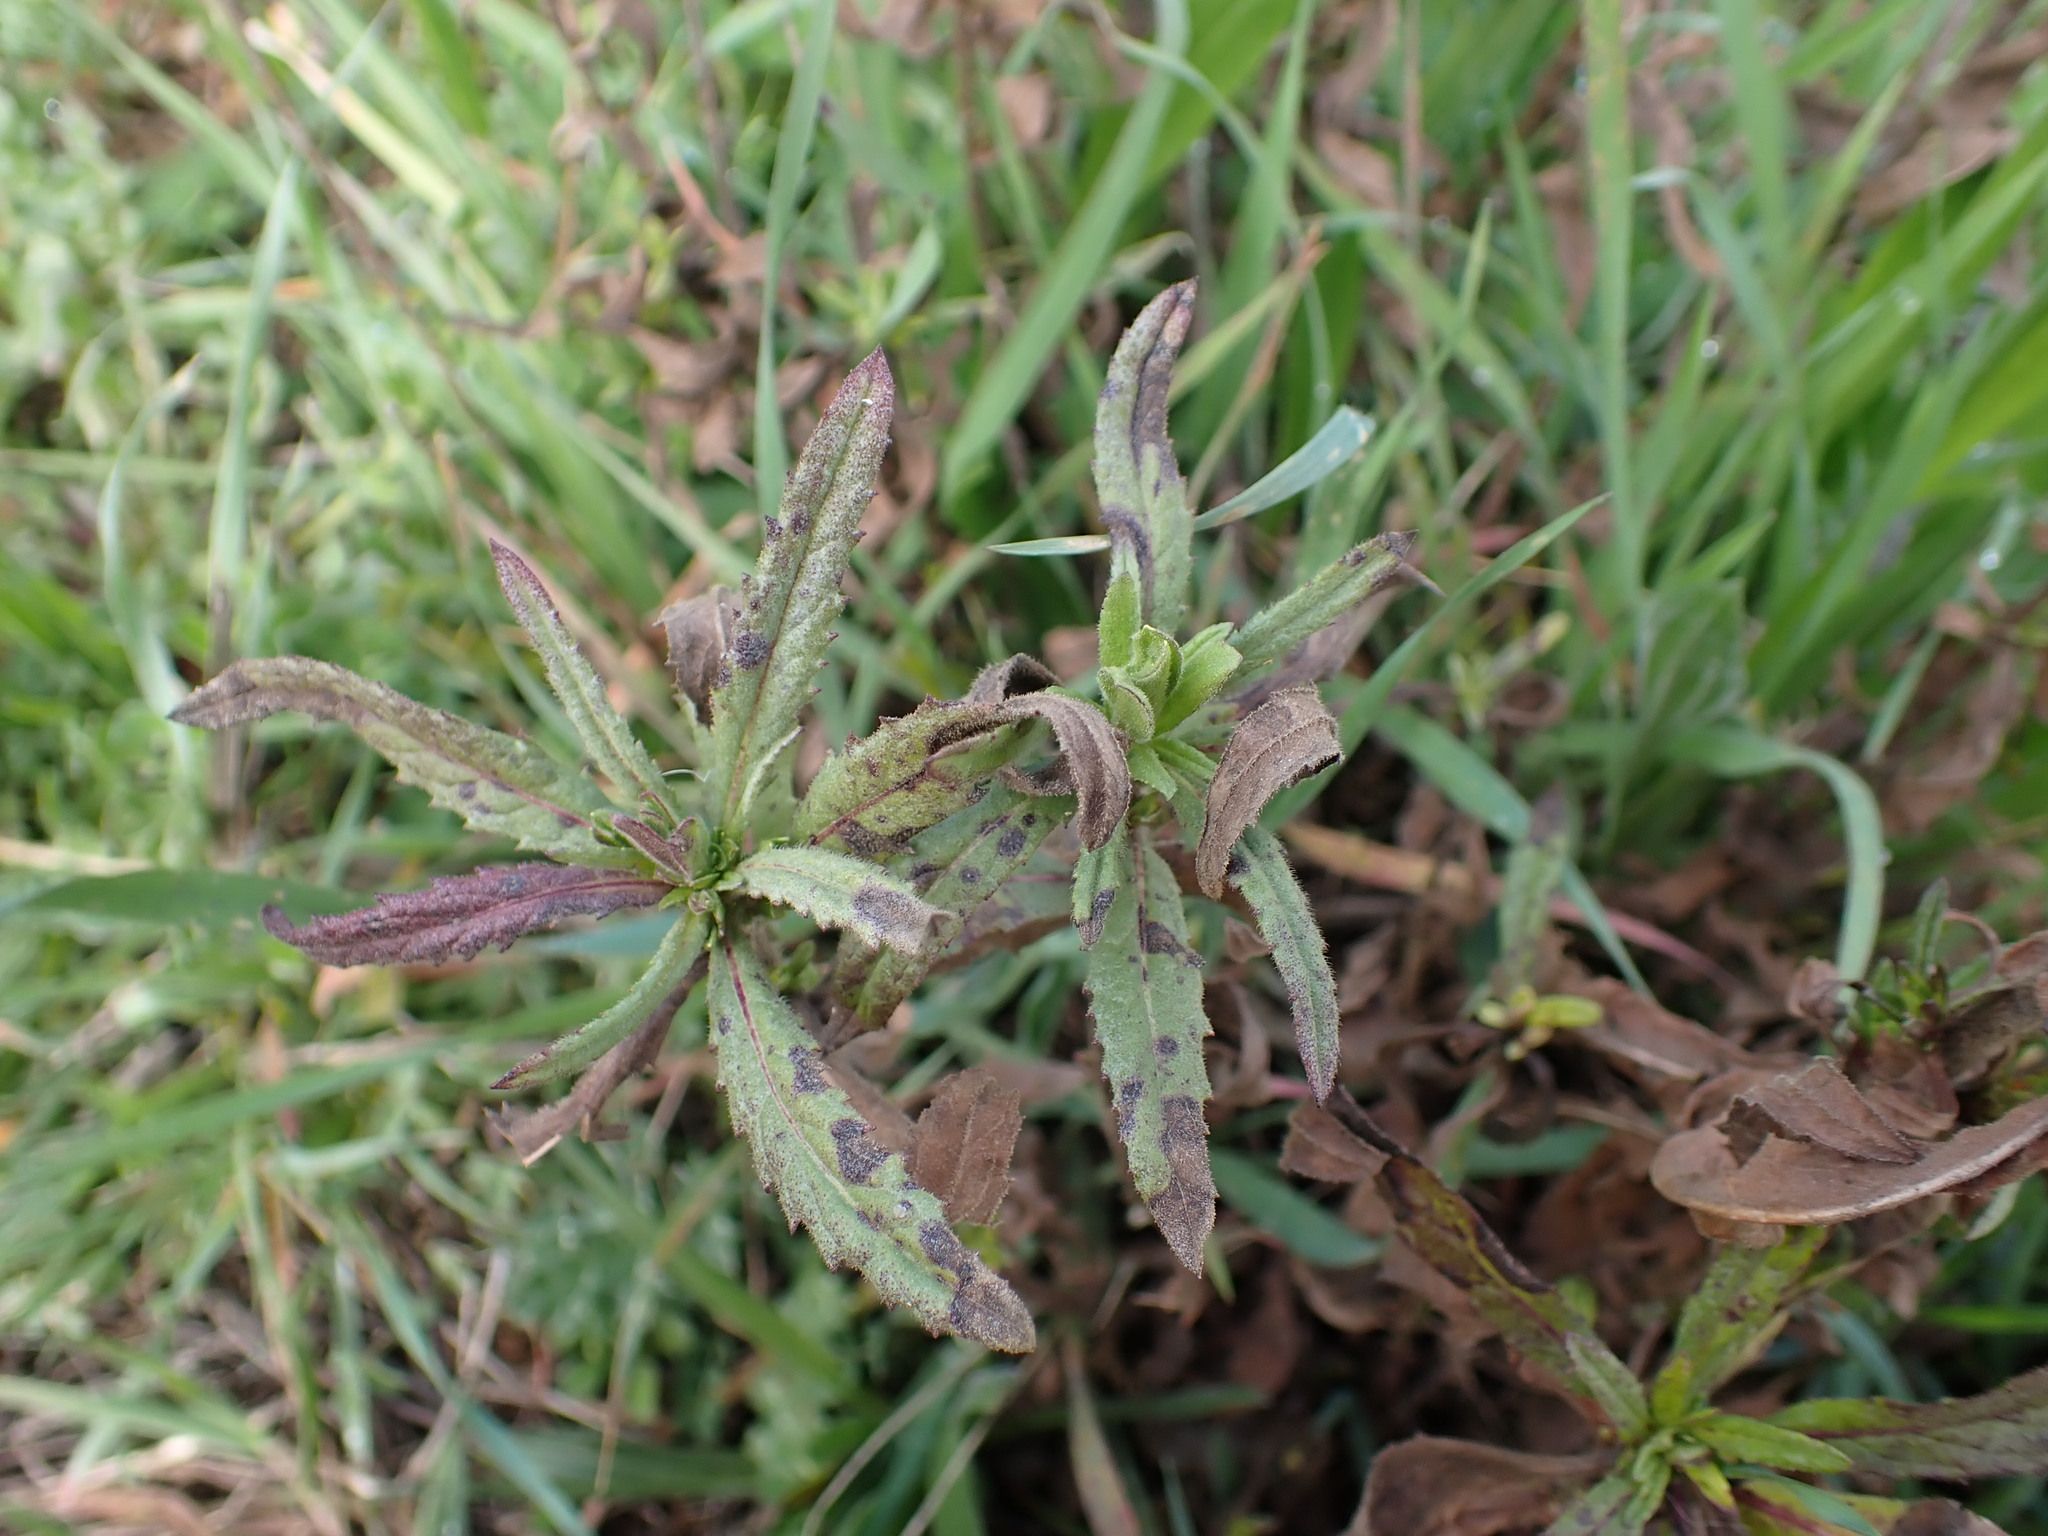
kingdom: Plantae
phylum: Tracheophyta
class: Magnoliopsida
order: Asterales
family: Asteraceae
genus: Dittrichia
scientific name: Dittrichia viscosa
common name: Woody fleabane
